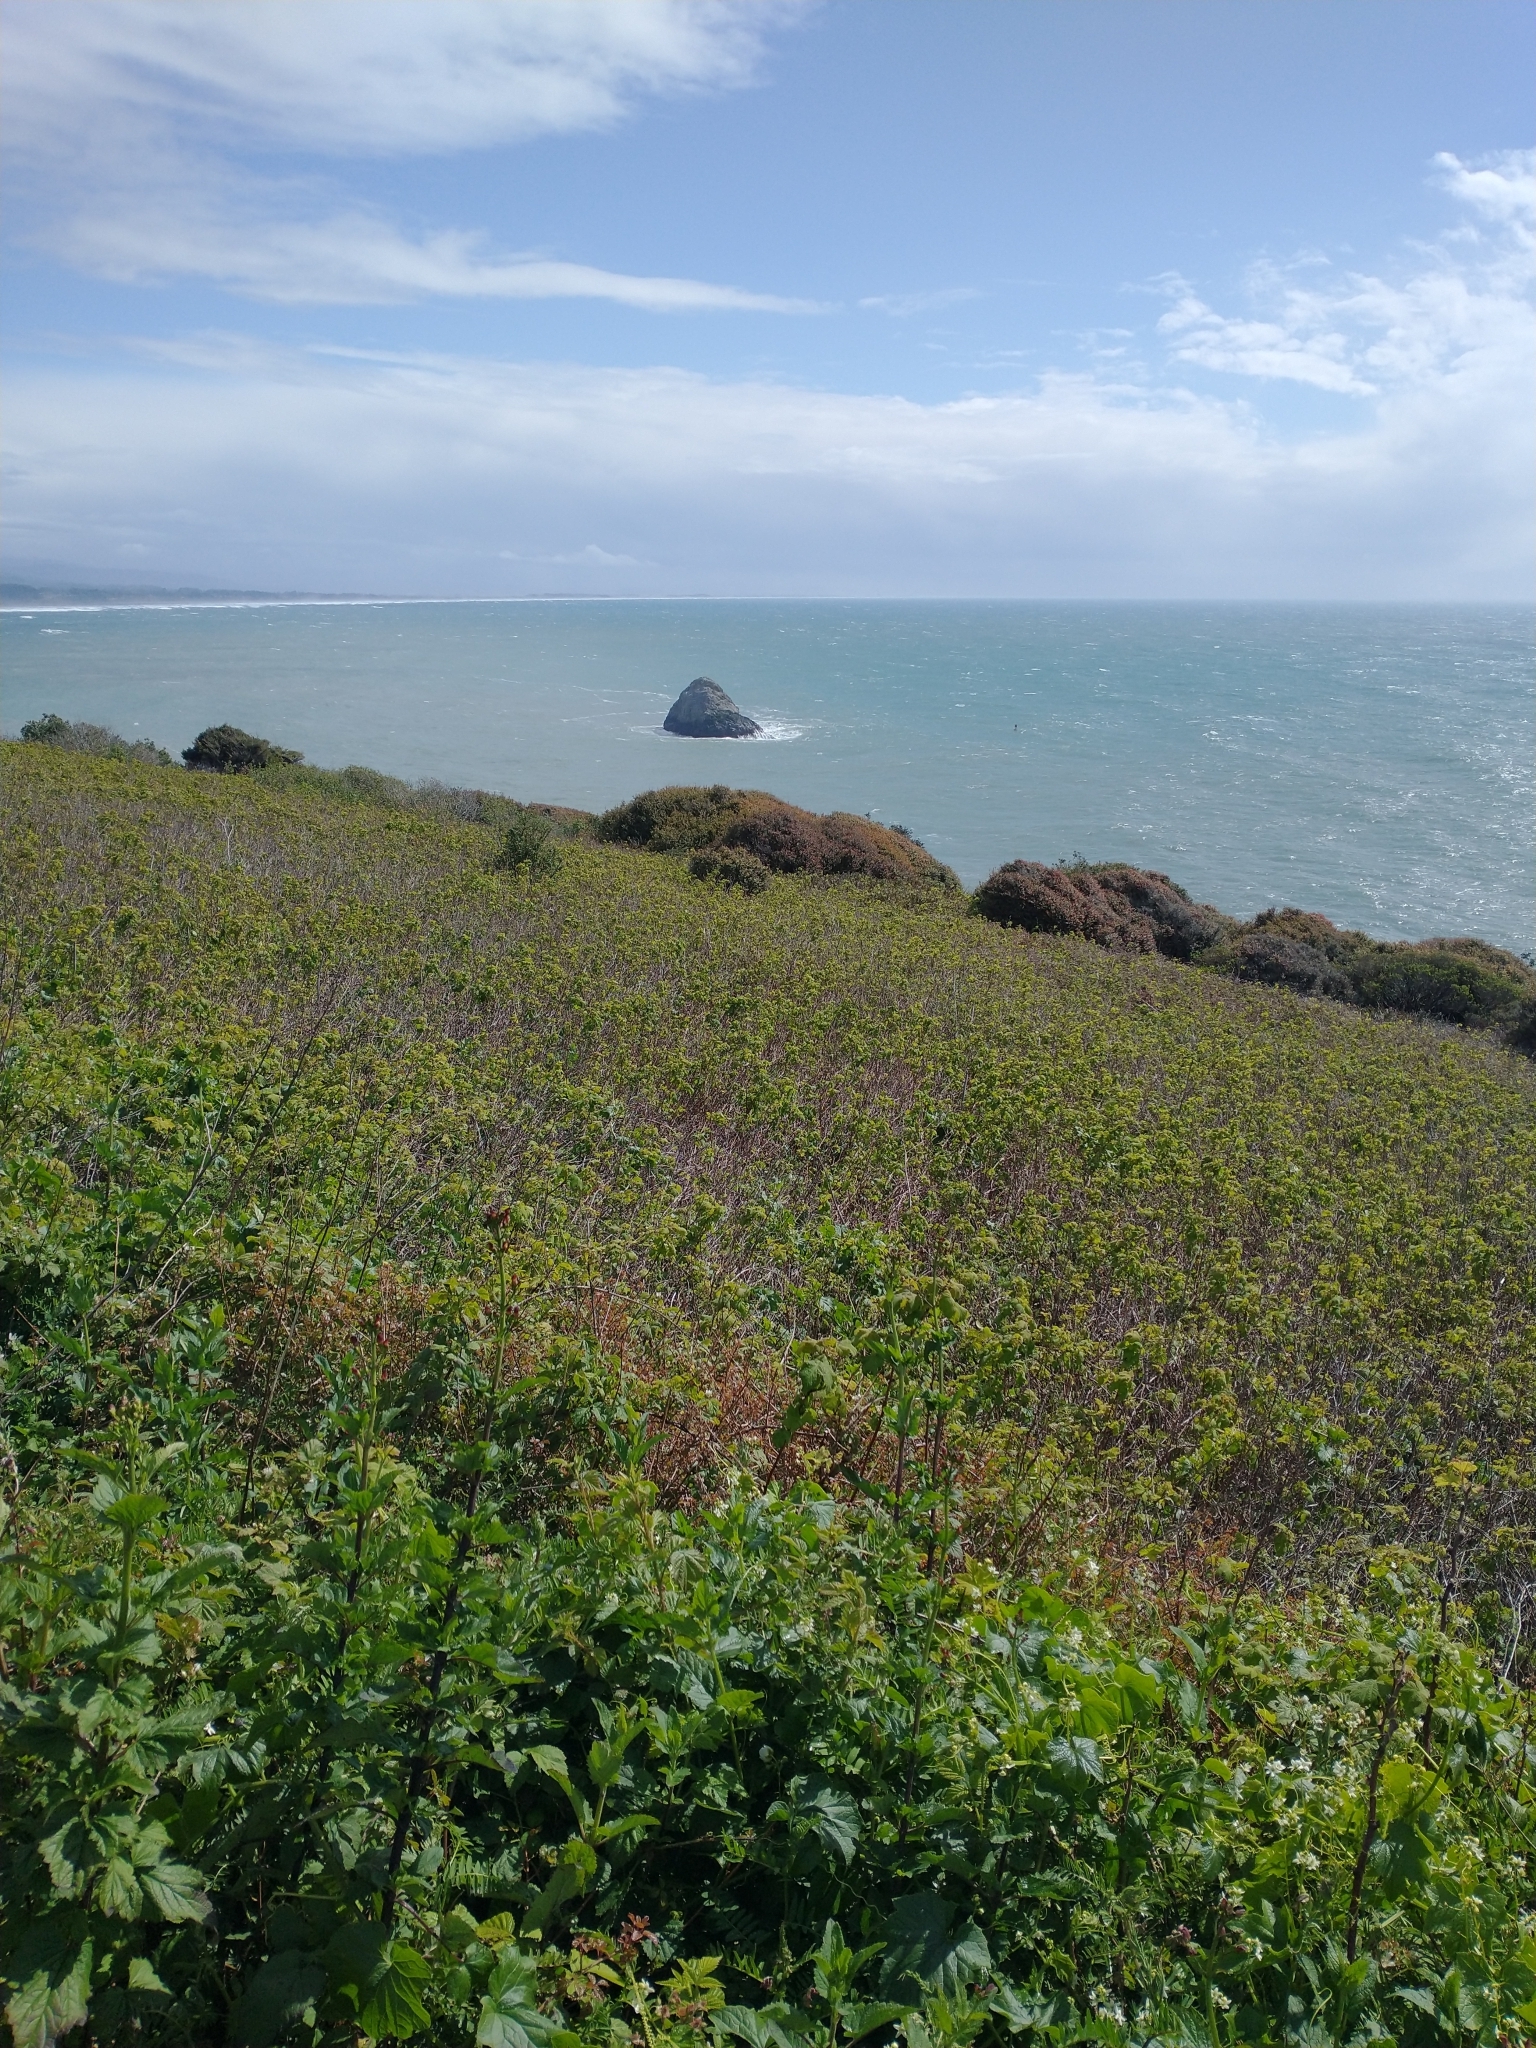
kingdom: Plantae
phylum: Tracheophyta
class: Magnoliopsida
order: Rosales
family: Rosaceae
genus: Rubus
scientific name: Rubus parviflorus
